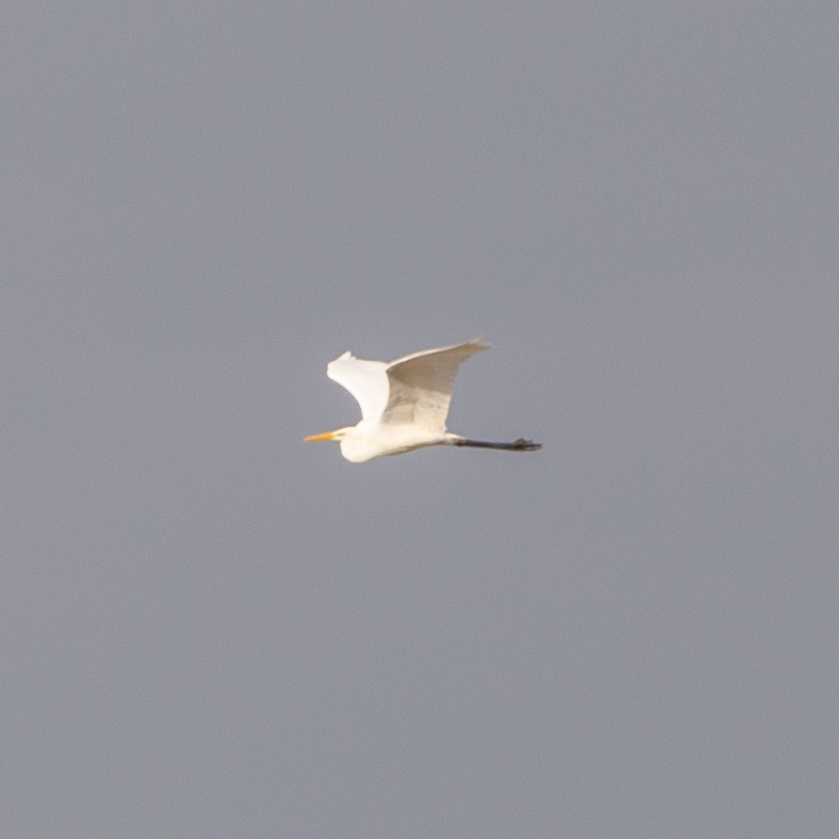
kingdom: Animalia
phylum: Chordata
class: Aves
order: Pelecaniformes
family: Ardeidae
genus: Ardea
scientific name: Ardea alba
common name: Great egret
